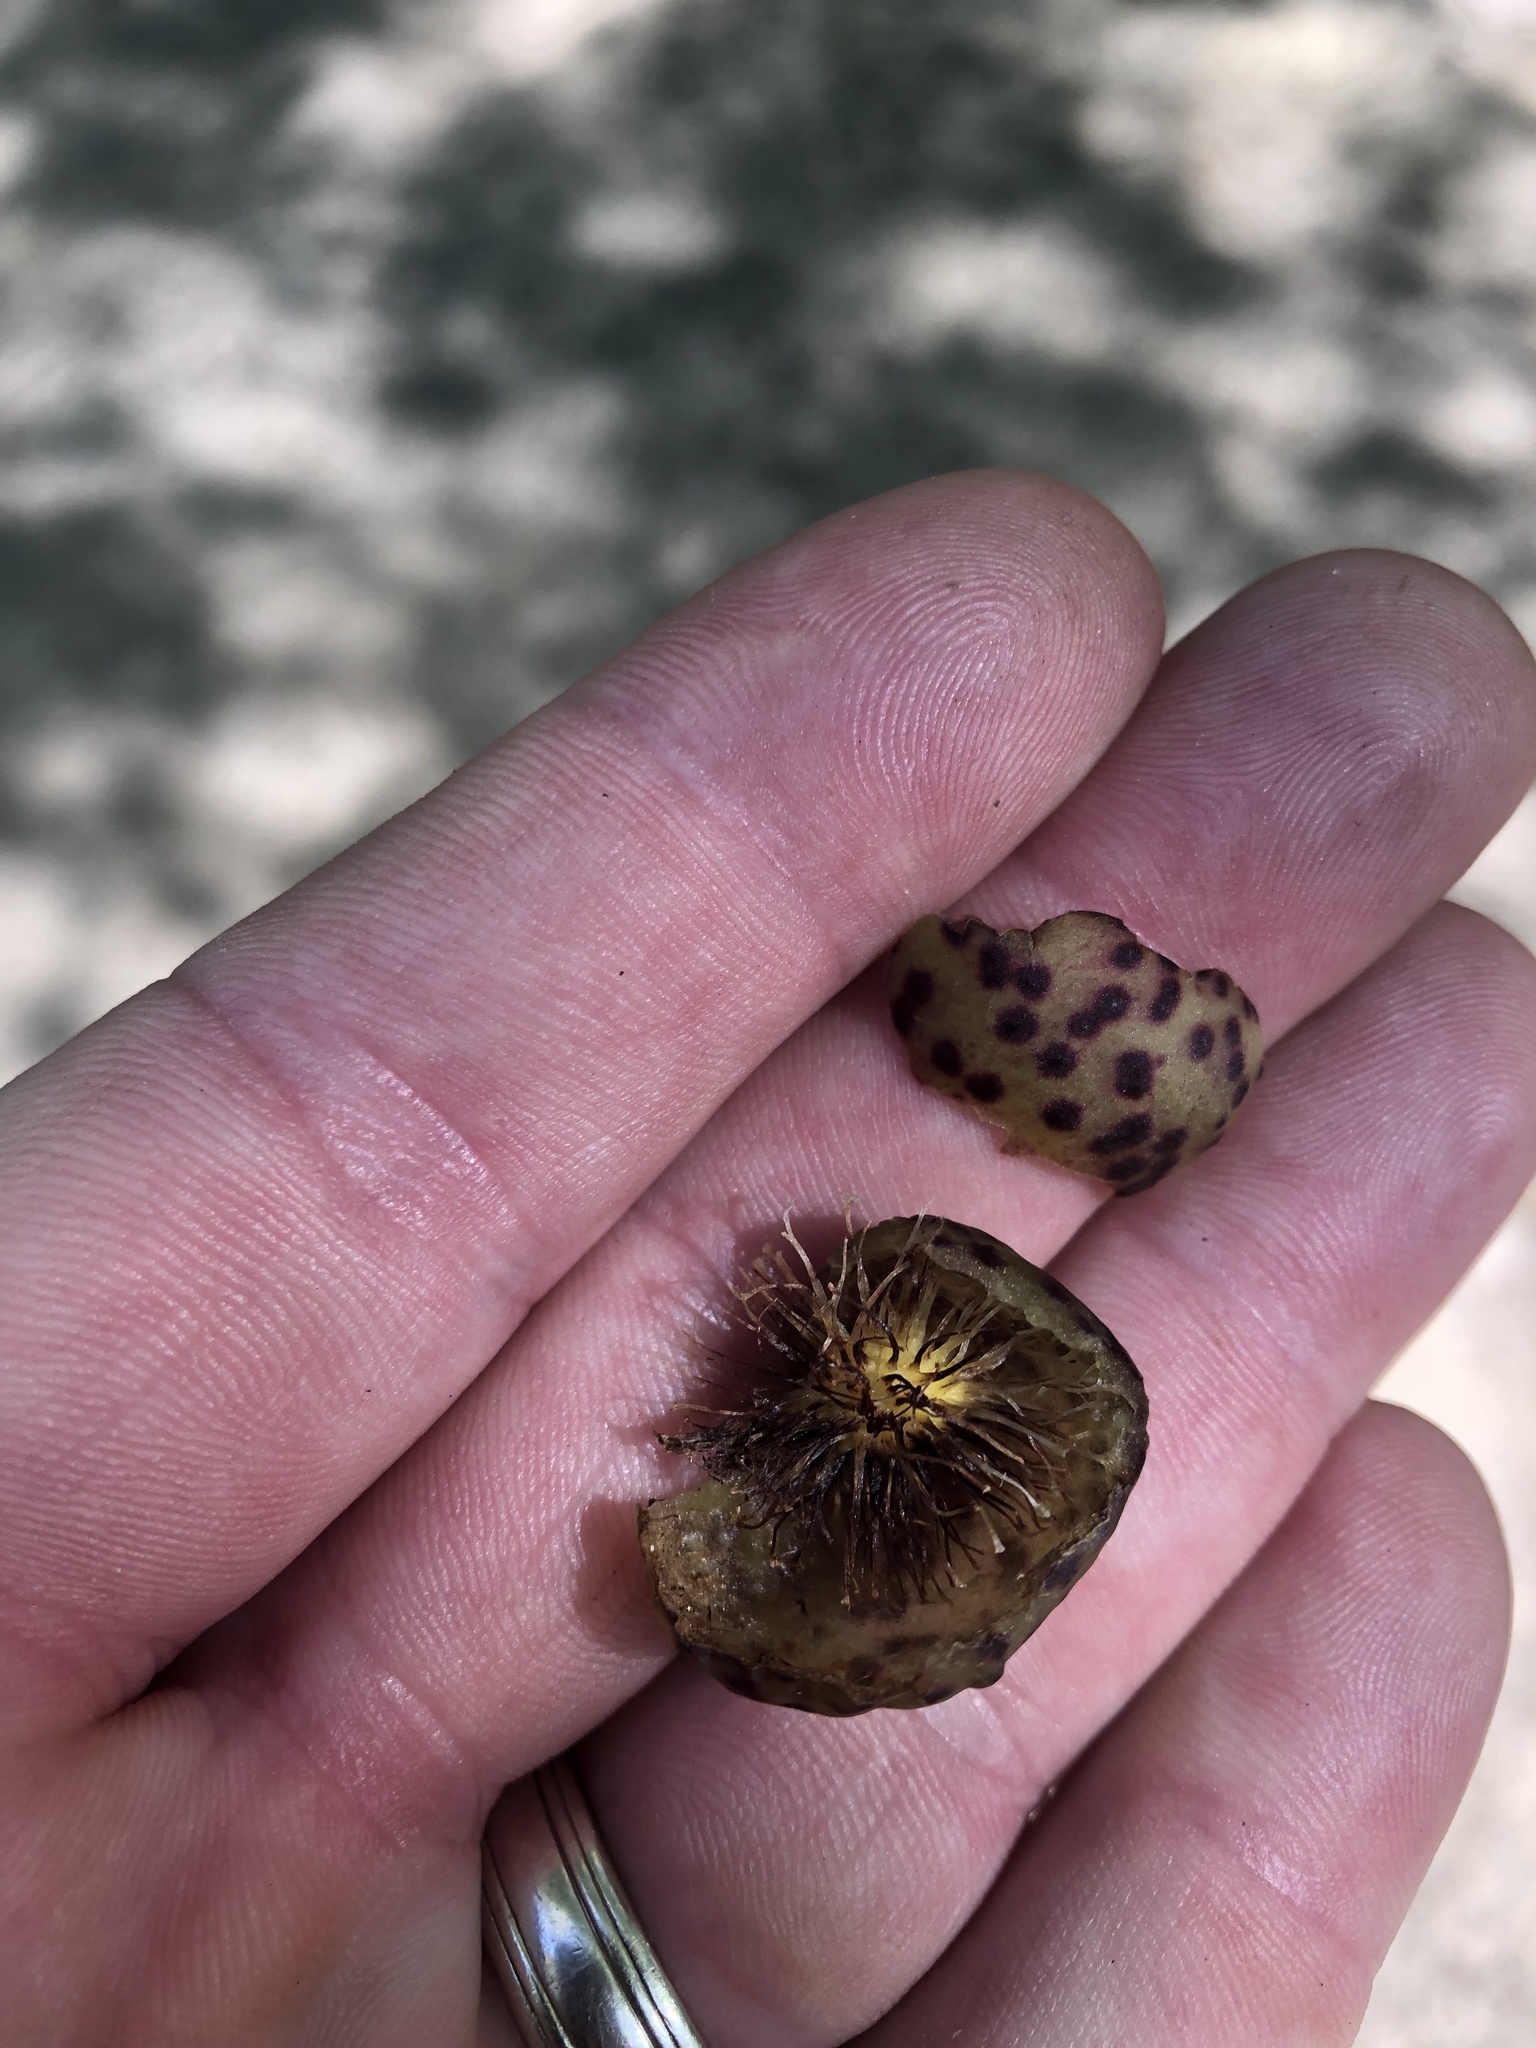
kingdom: Animalia
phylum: Arthropoda
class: Insecta
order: Hymenoptera
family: Cynipidae
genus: Amphibolips
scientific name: Amphibolips
